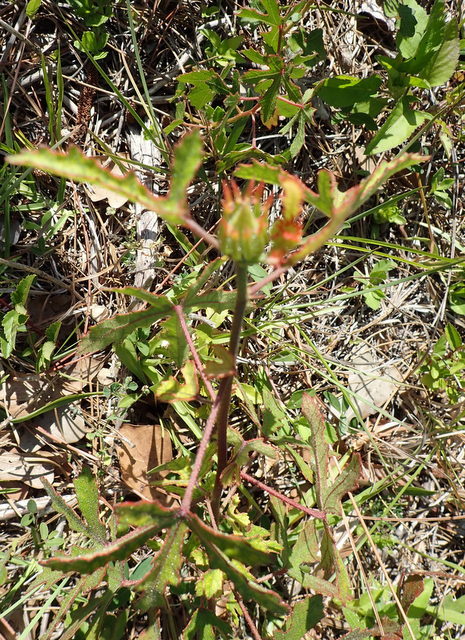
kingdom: Plantae
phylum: Tracheophyta
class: Magnoliopsida
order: Malvales
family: Malvaceae
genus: Hibiscus
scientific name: Hibiscus aculeatus
